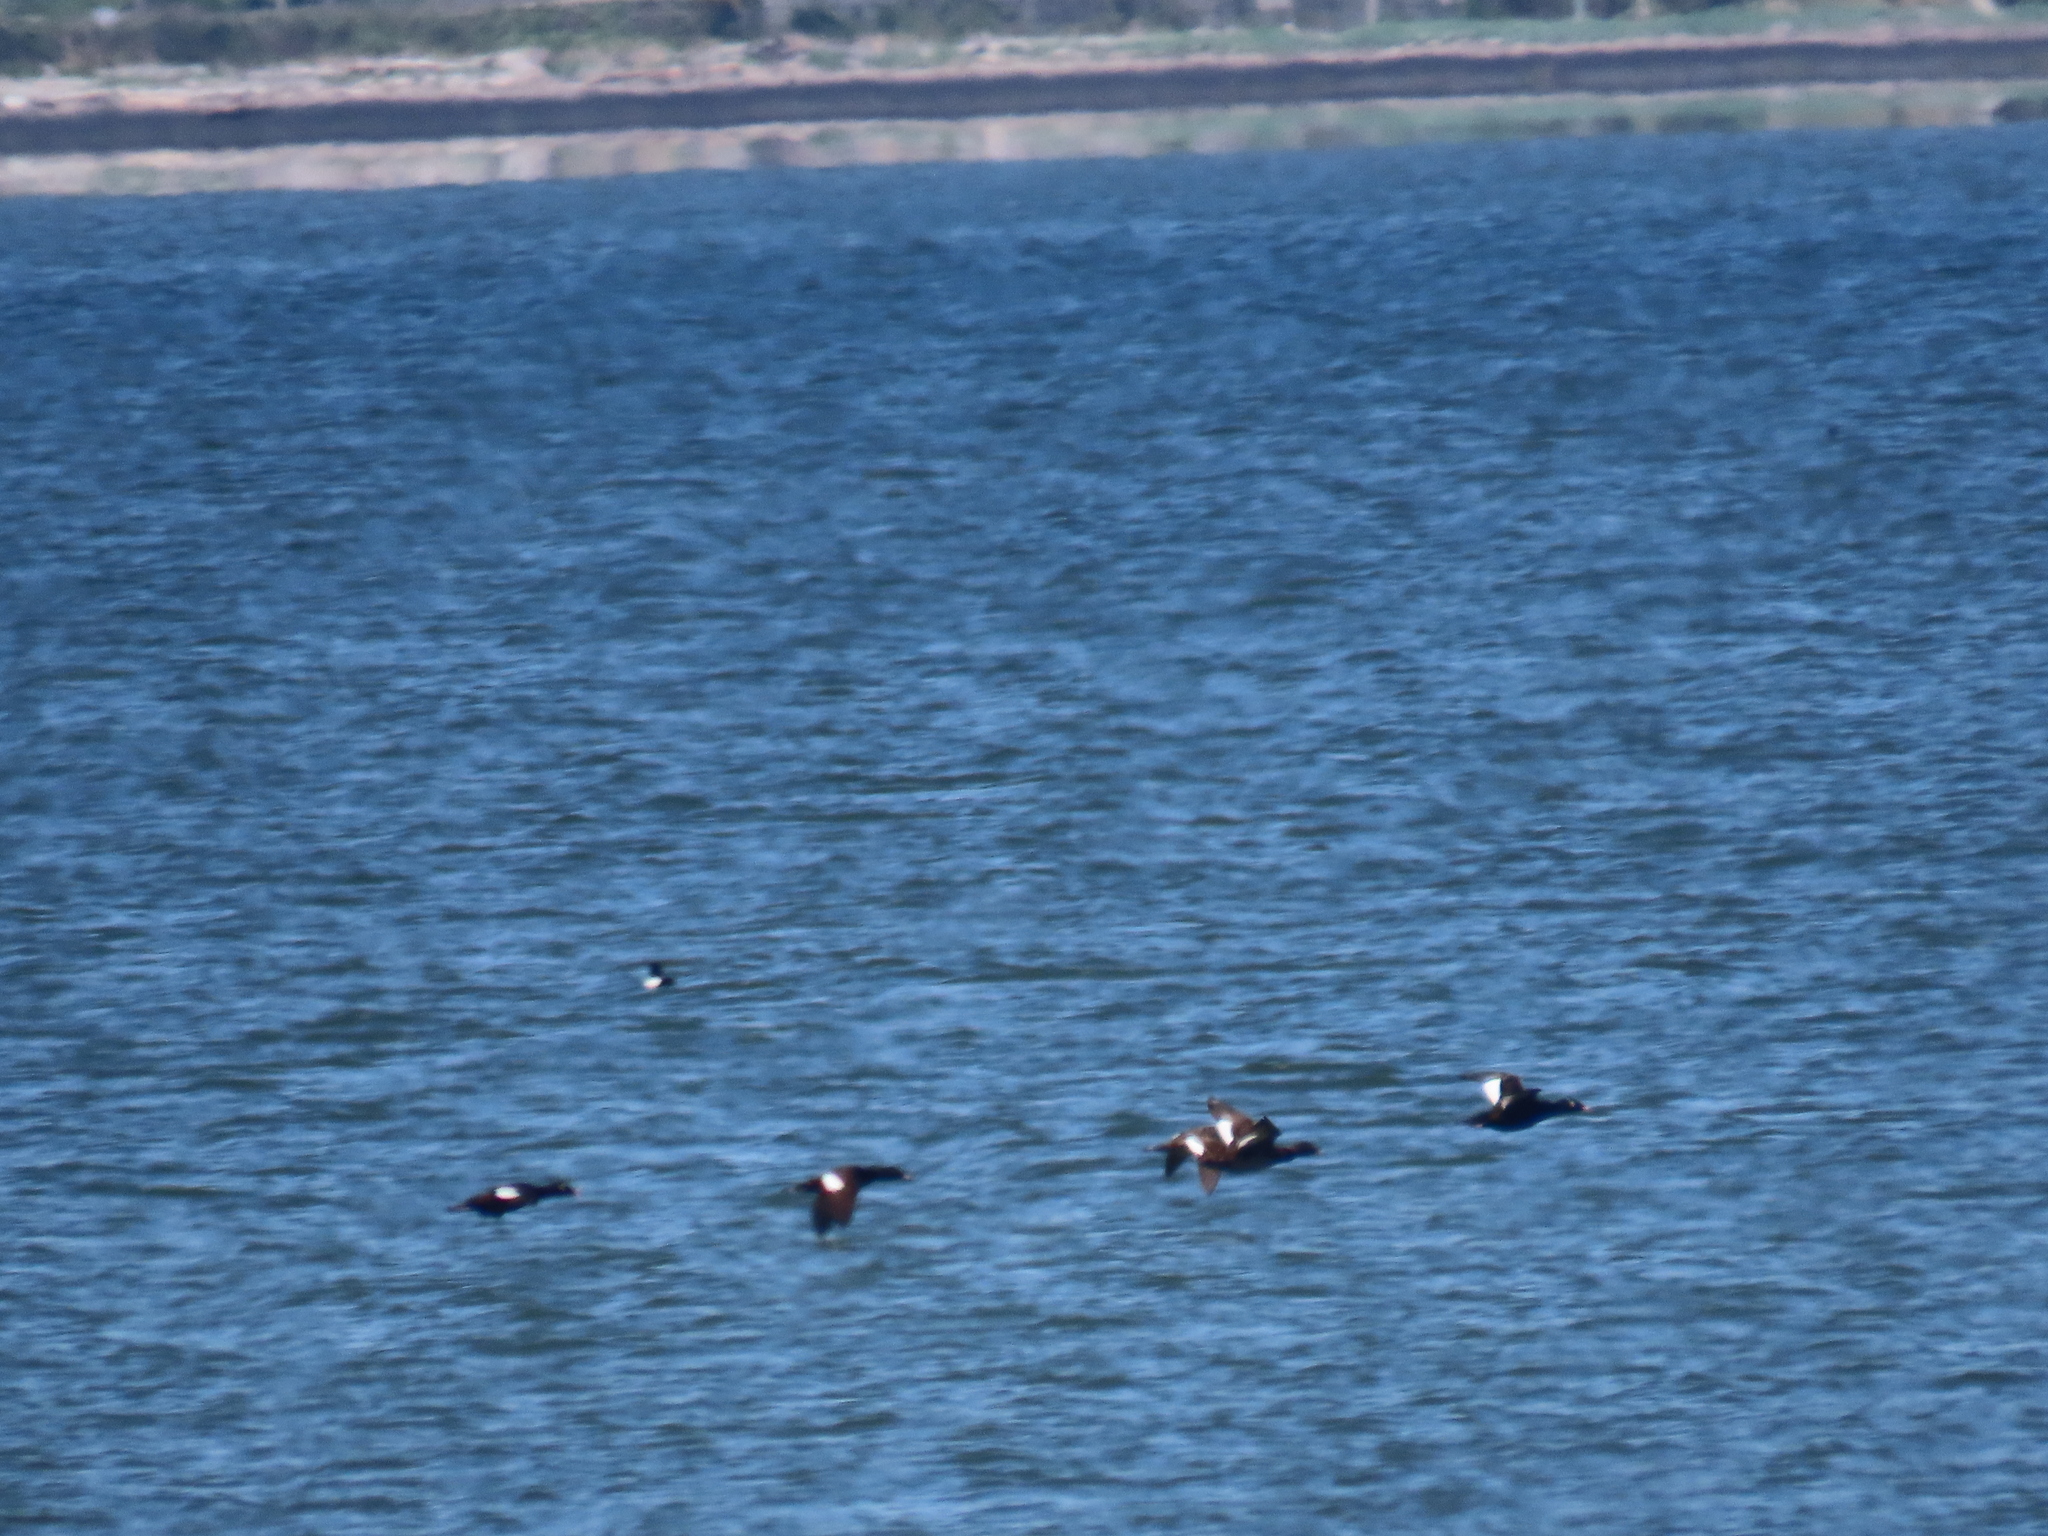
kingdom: Animalia
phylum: Chordata
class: Aves
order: Anseriformes
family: Anatidae
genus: Melanitta
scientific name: Melanitta deglandi
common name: White-winged scoter
